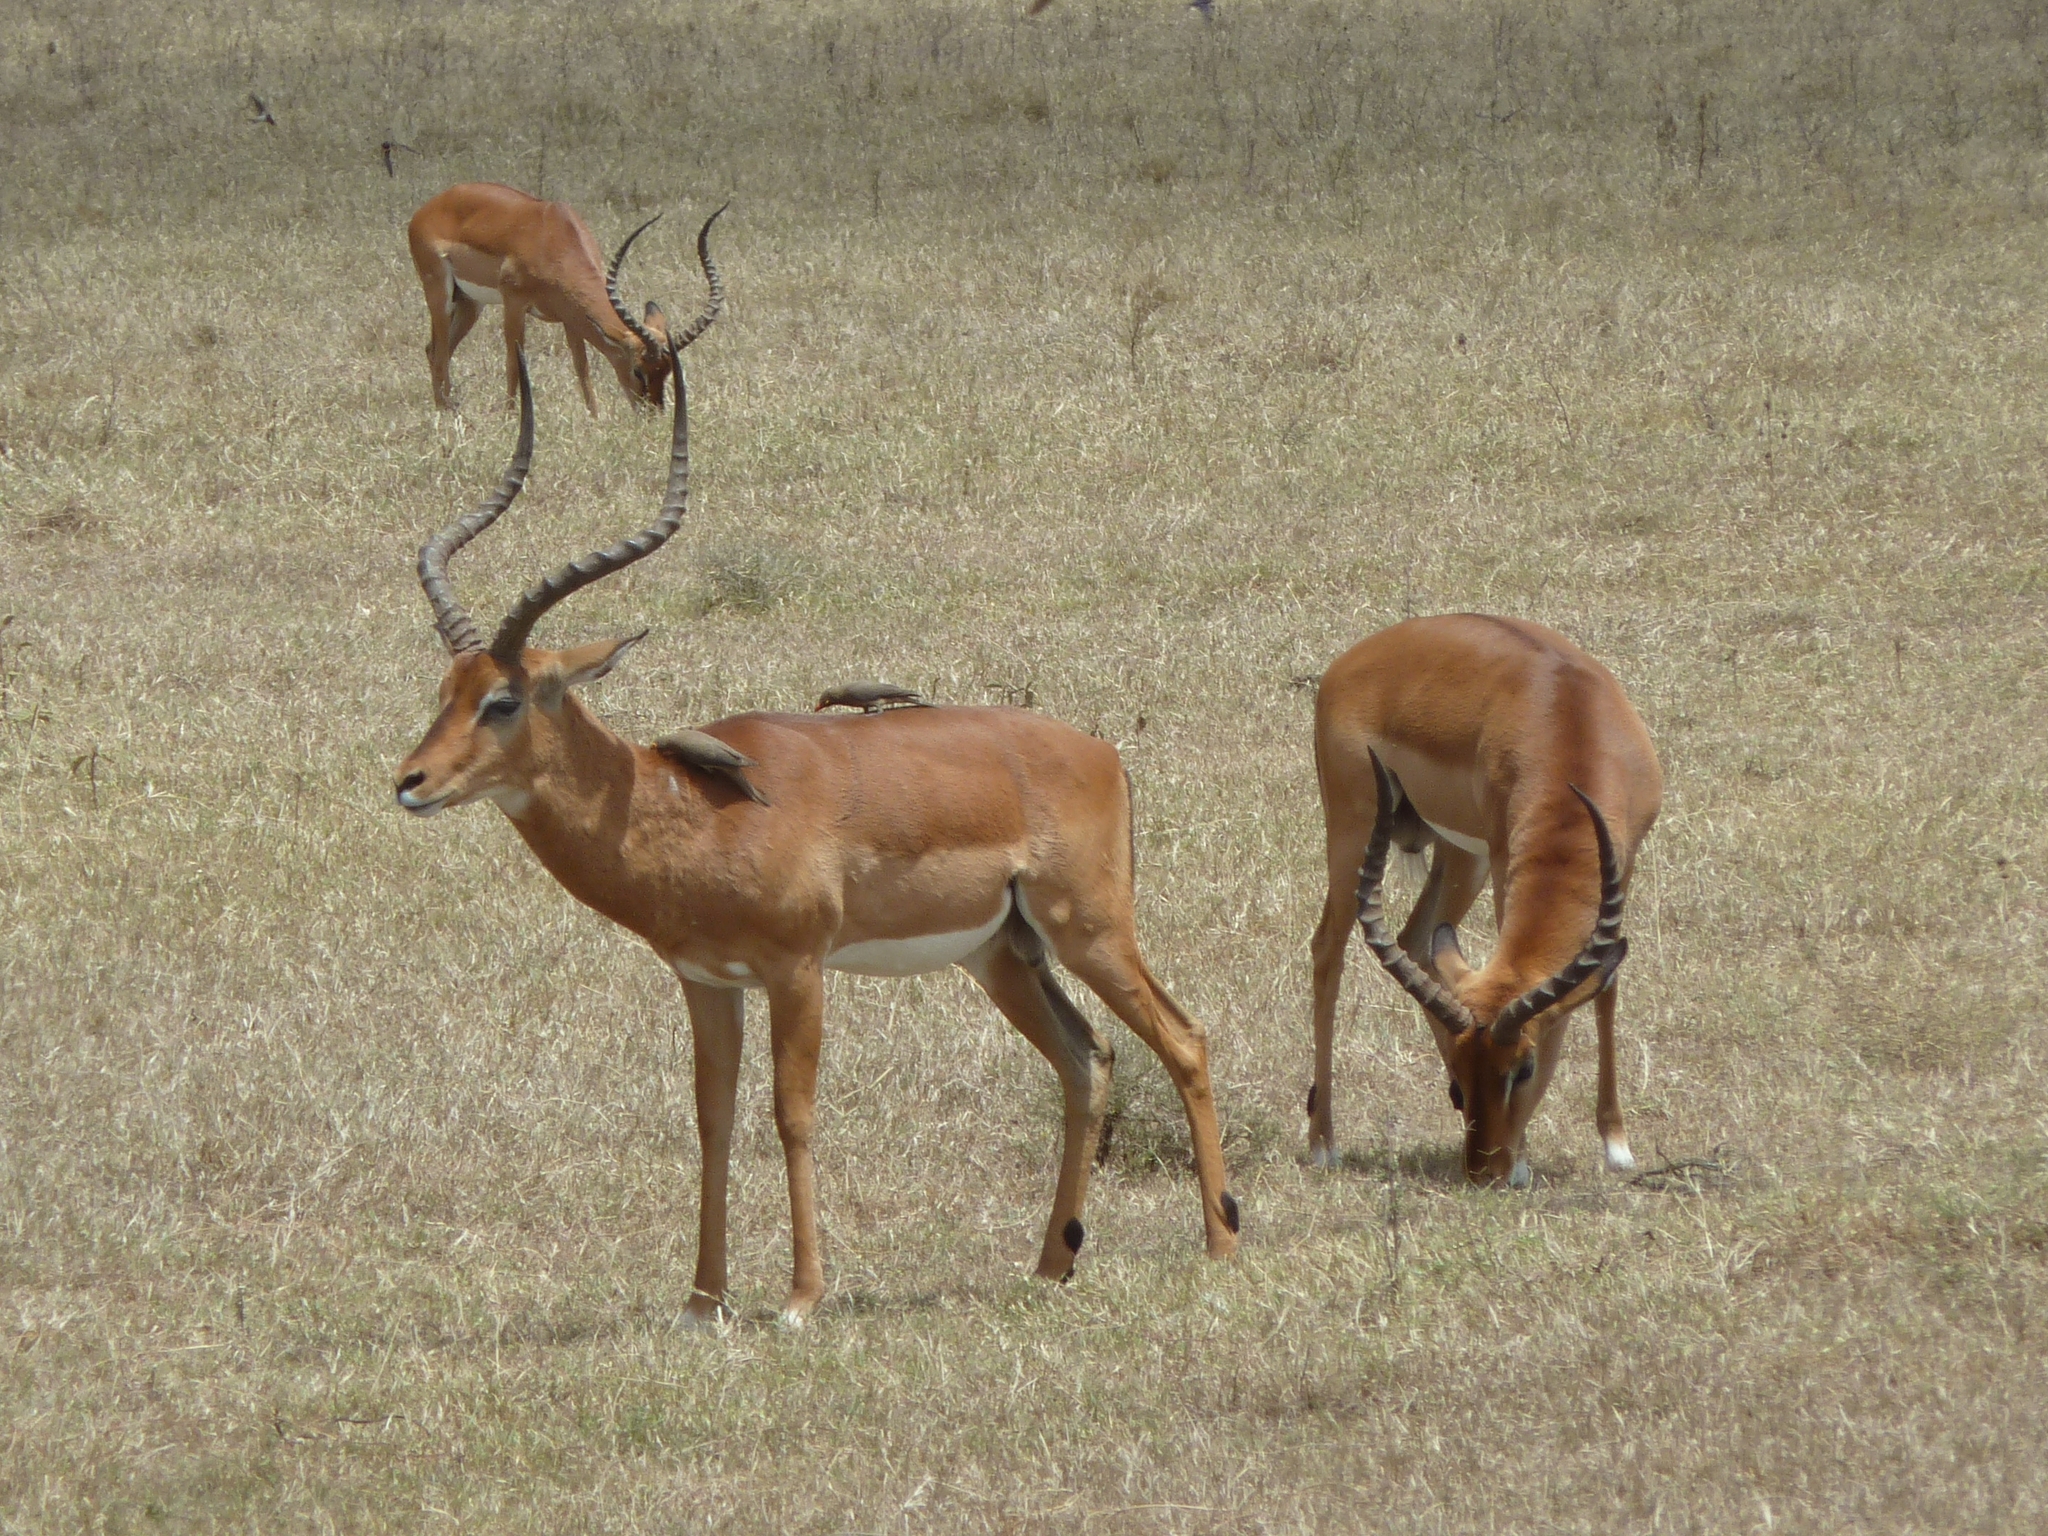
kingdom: Animalia
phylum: Chordata
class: Mammalia
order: Artiodactyla
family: Bovidae
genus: Aepyceros
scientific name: Aepyceros melampus
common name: Impala
